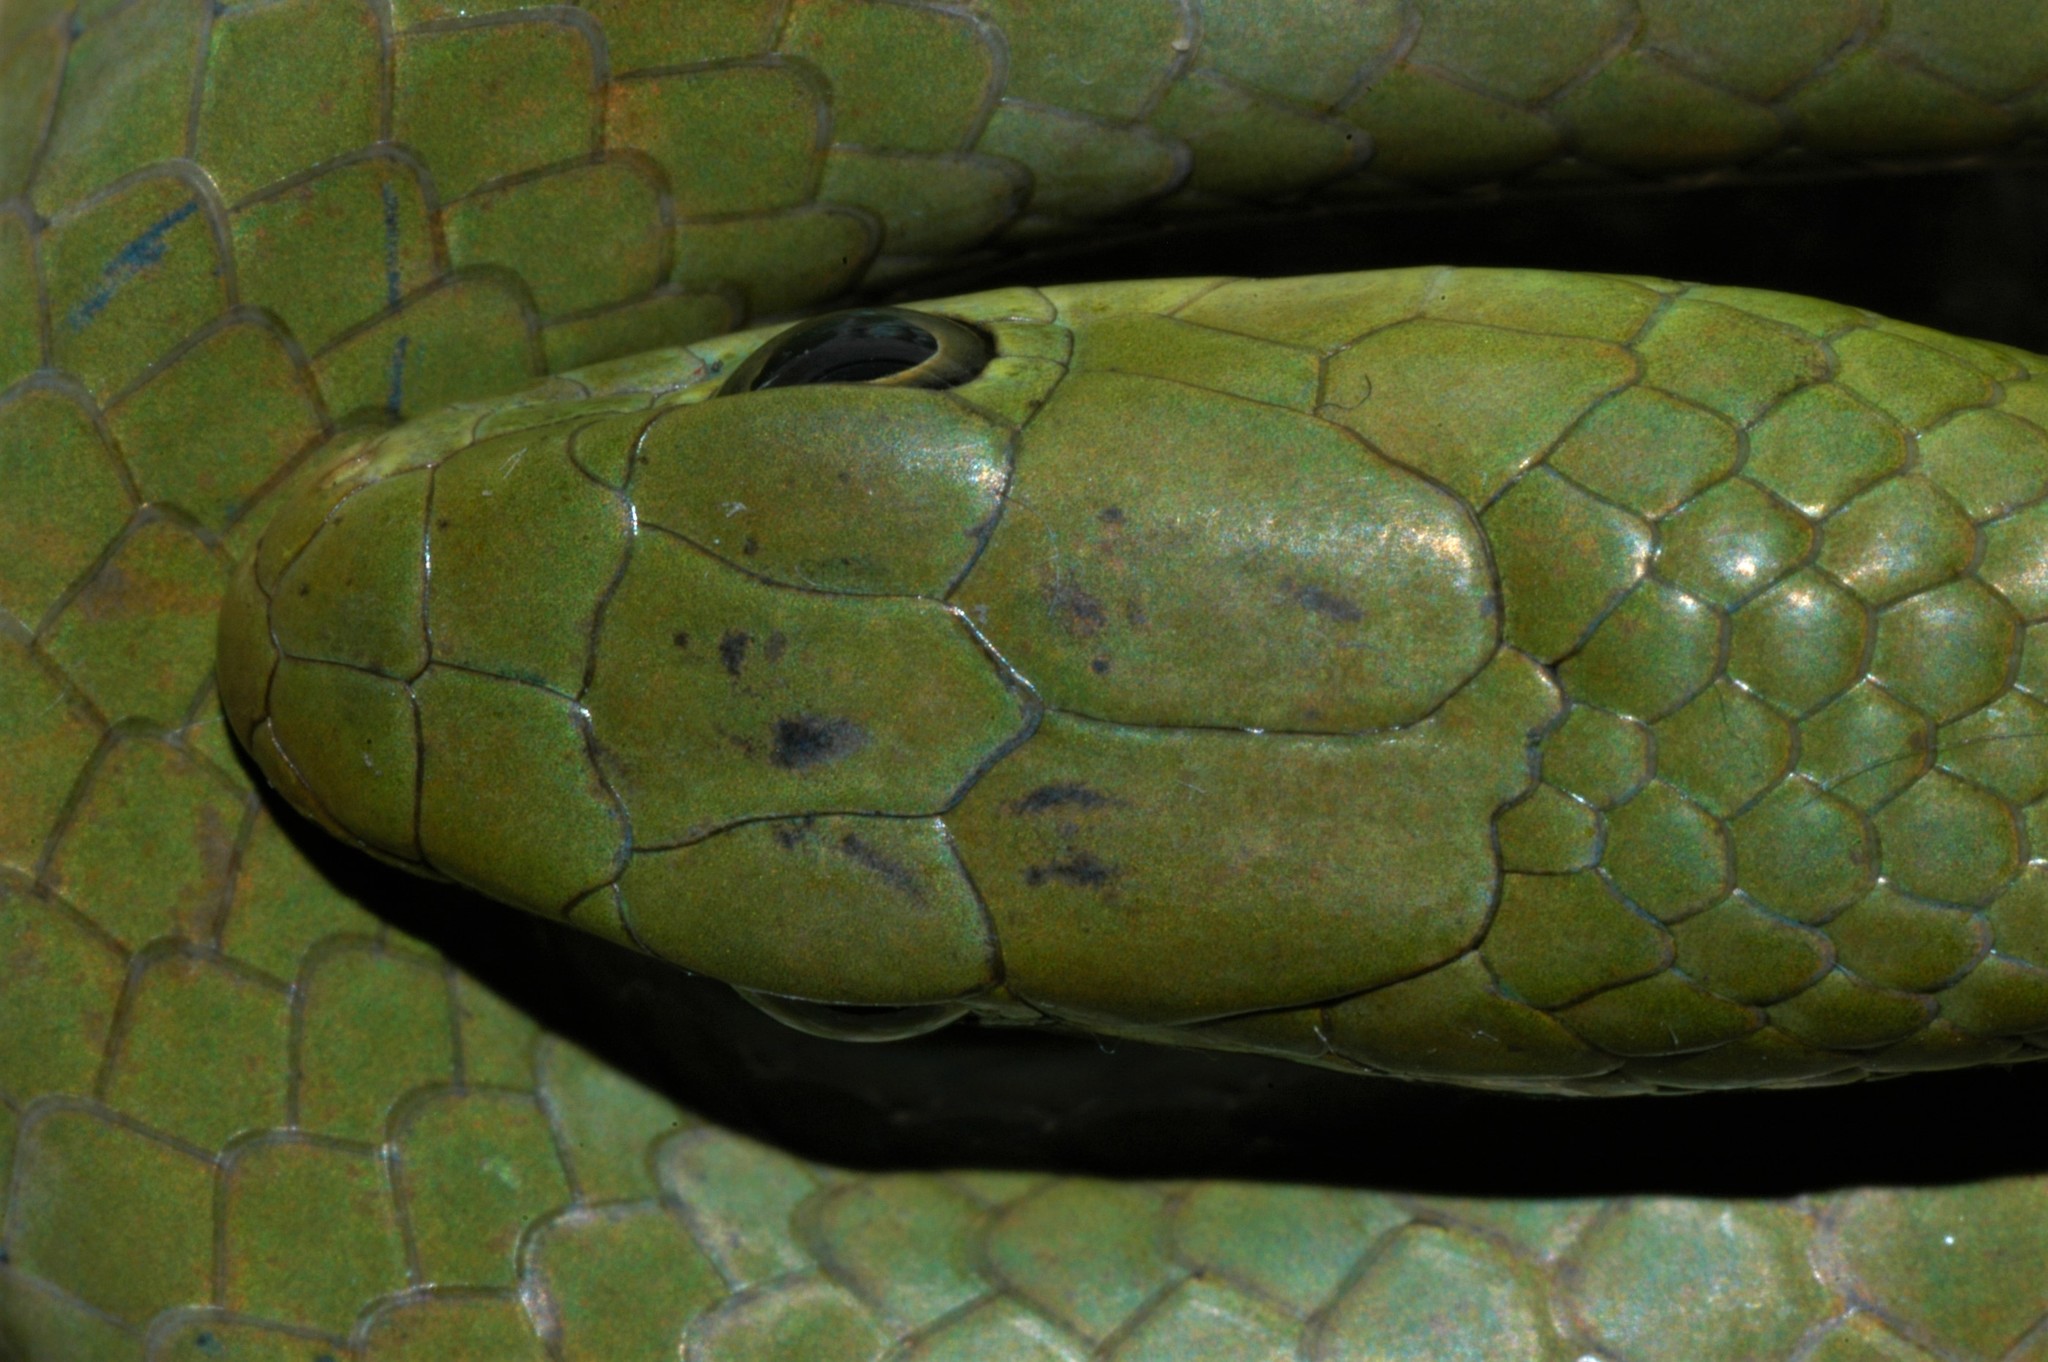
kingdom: Animalia
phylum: Chordata
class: Squamata
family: Colubridae
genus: Philothamnus
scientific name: Philothamnus hoplogaster
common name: Green water snake
